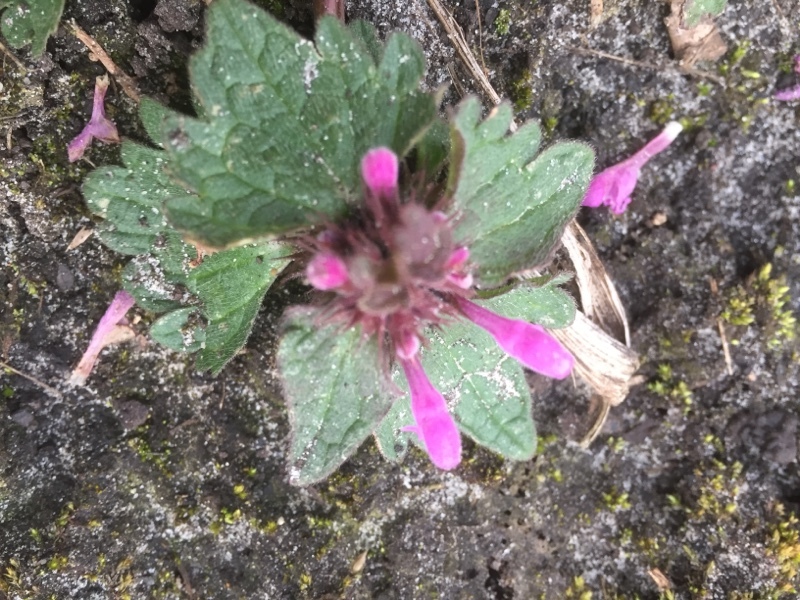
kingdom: Plantae
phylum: Tracheophyta
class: Magnoliopsida
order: Lamiales
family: Lamiaceae
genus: Lamium
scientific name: Lamium hybridum
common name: Cut-leaved dead-nettle
